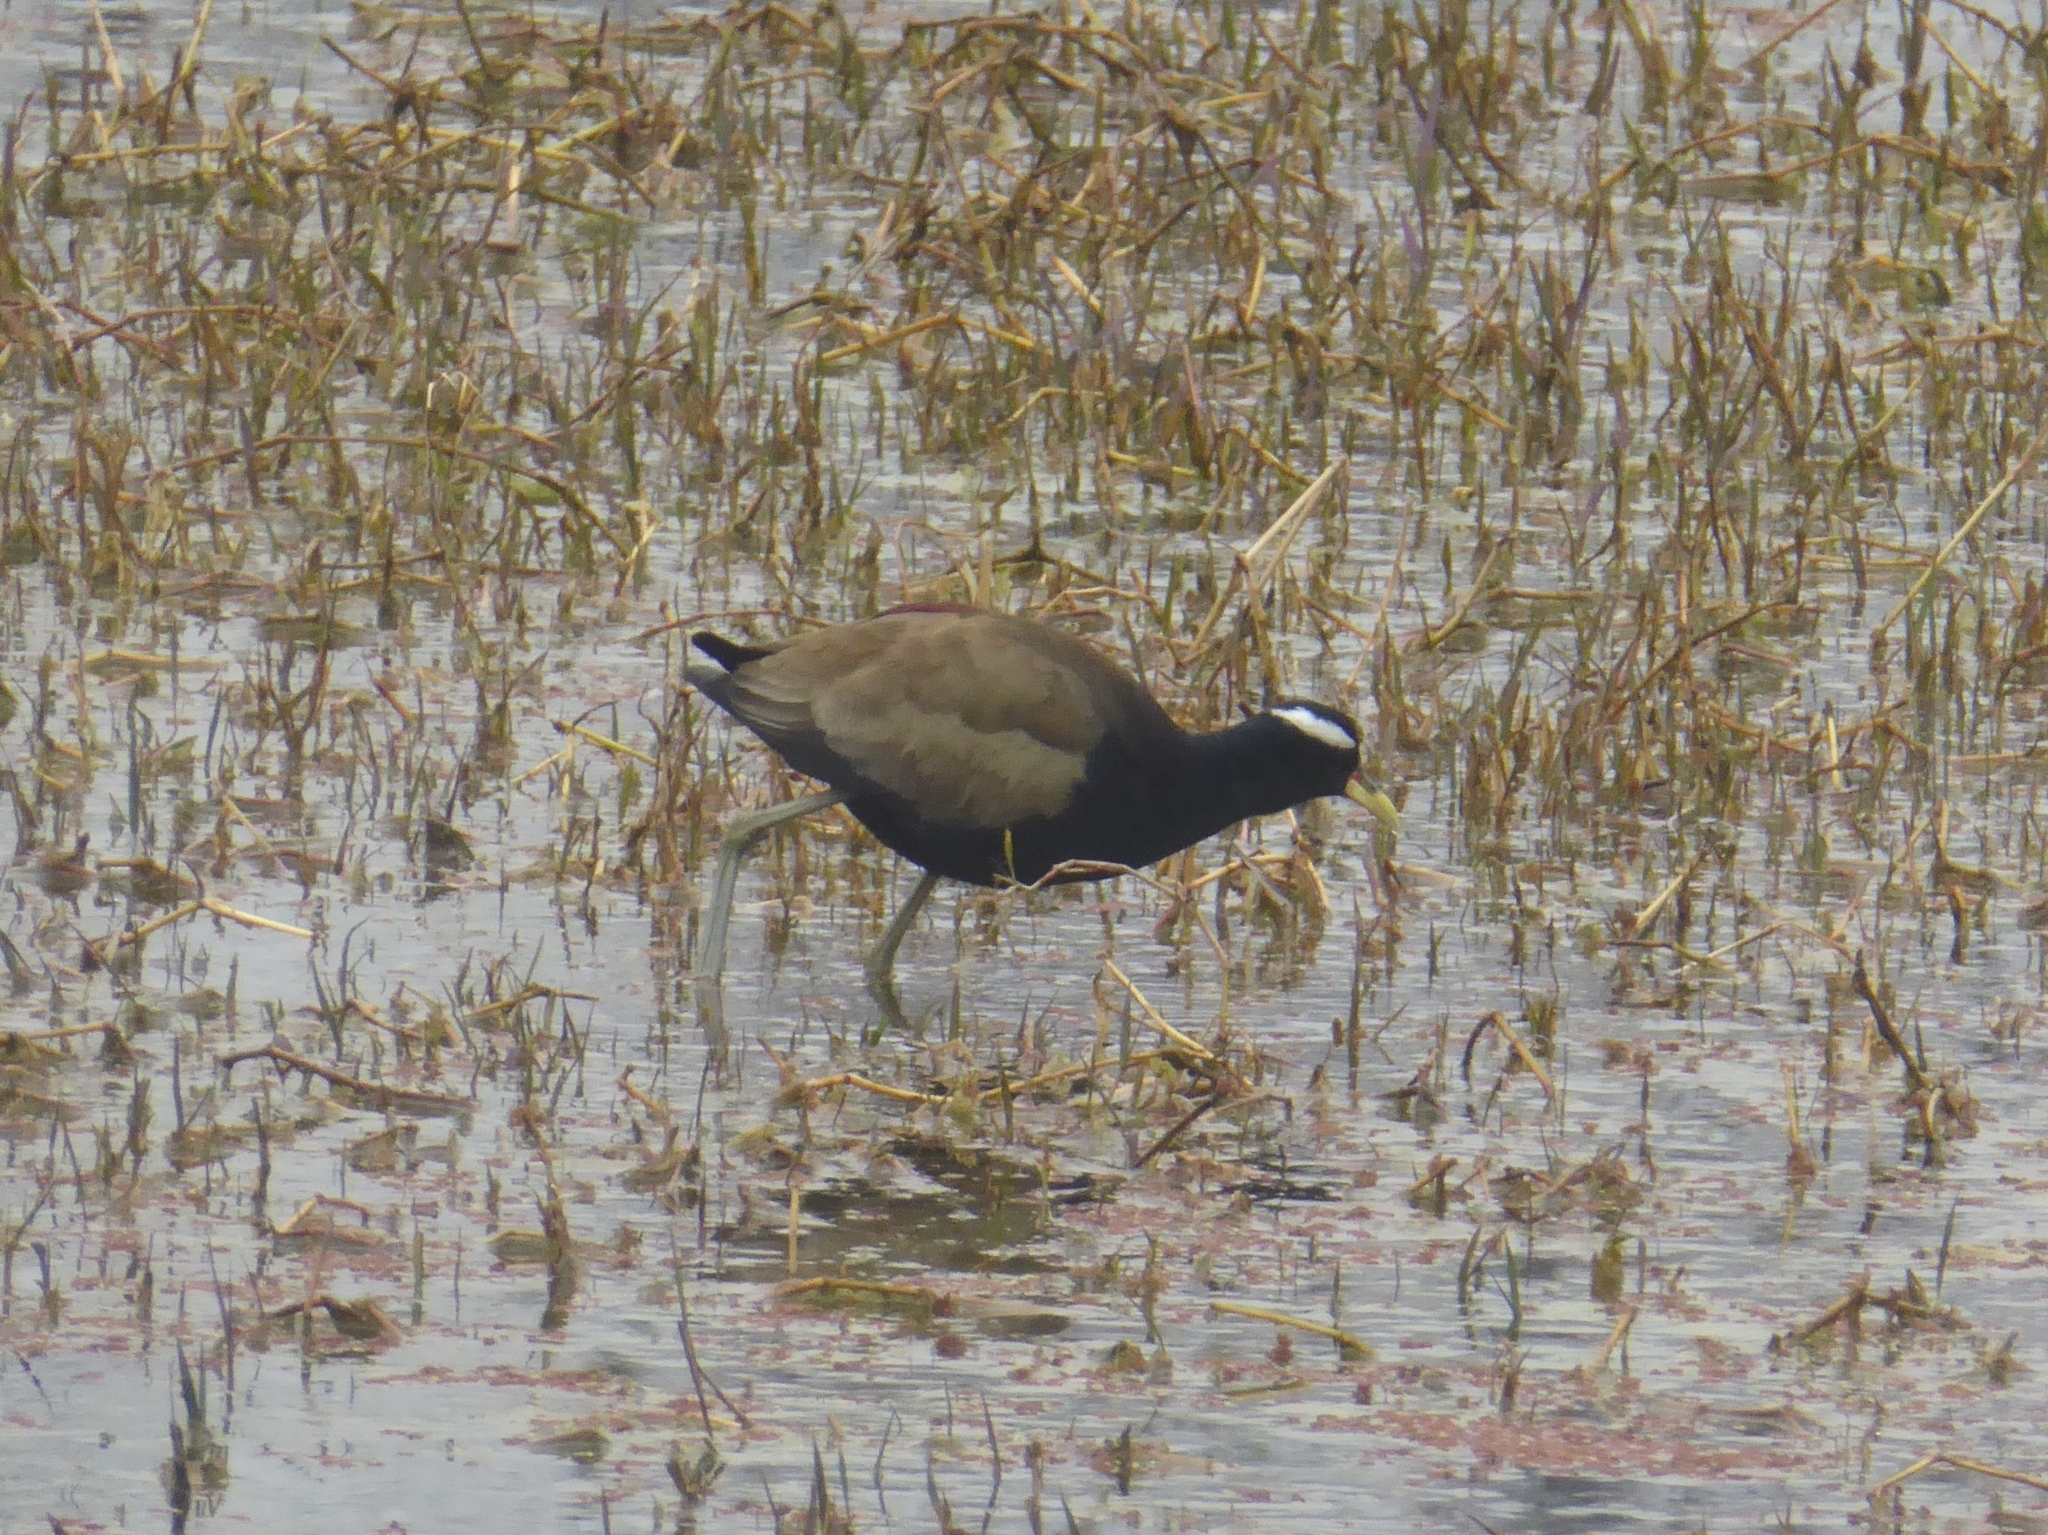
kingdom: Animalia
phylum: Chordata
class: Aves
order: Charadriiformes
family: Jacanidae
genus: Metopidius
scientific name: Metopidius indicus
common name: Bronze-winged jacana
